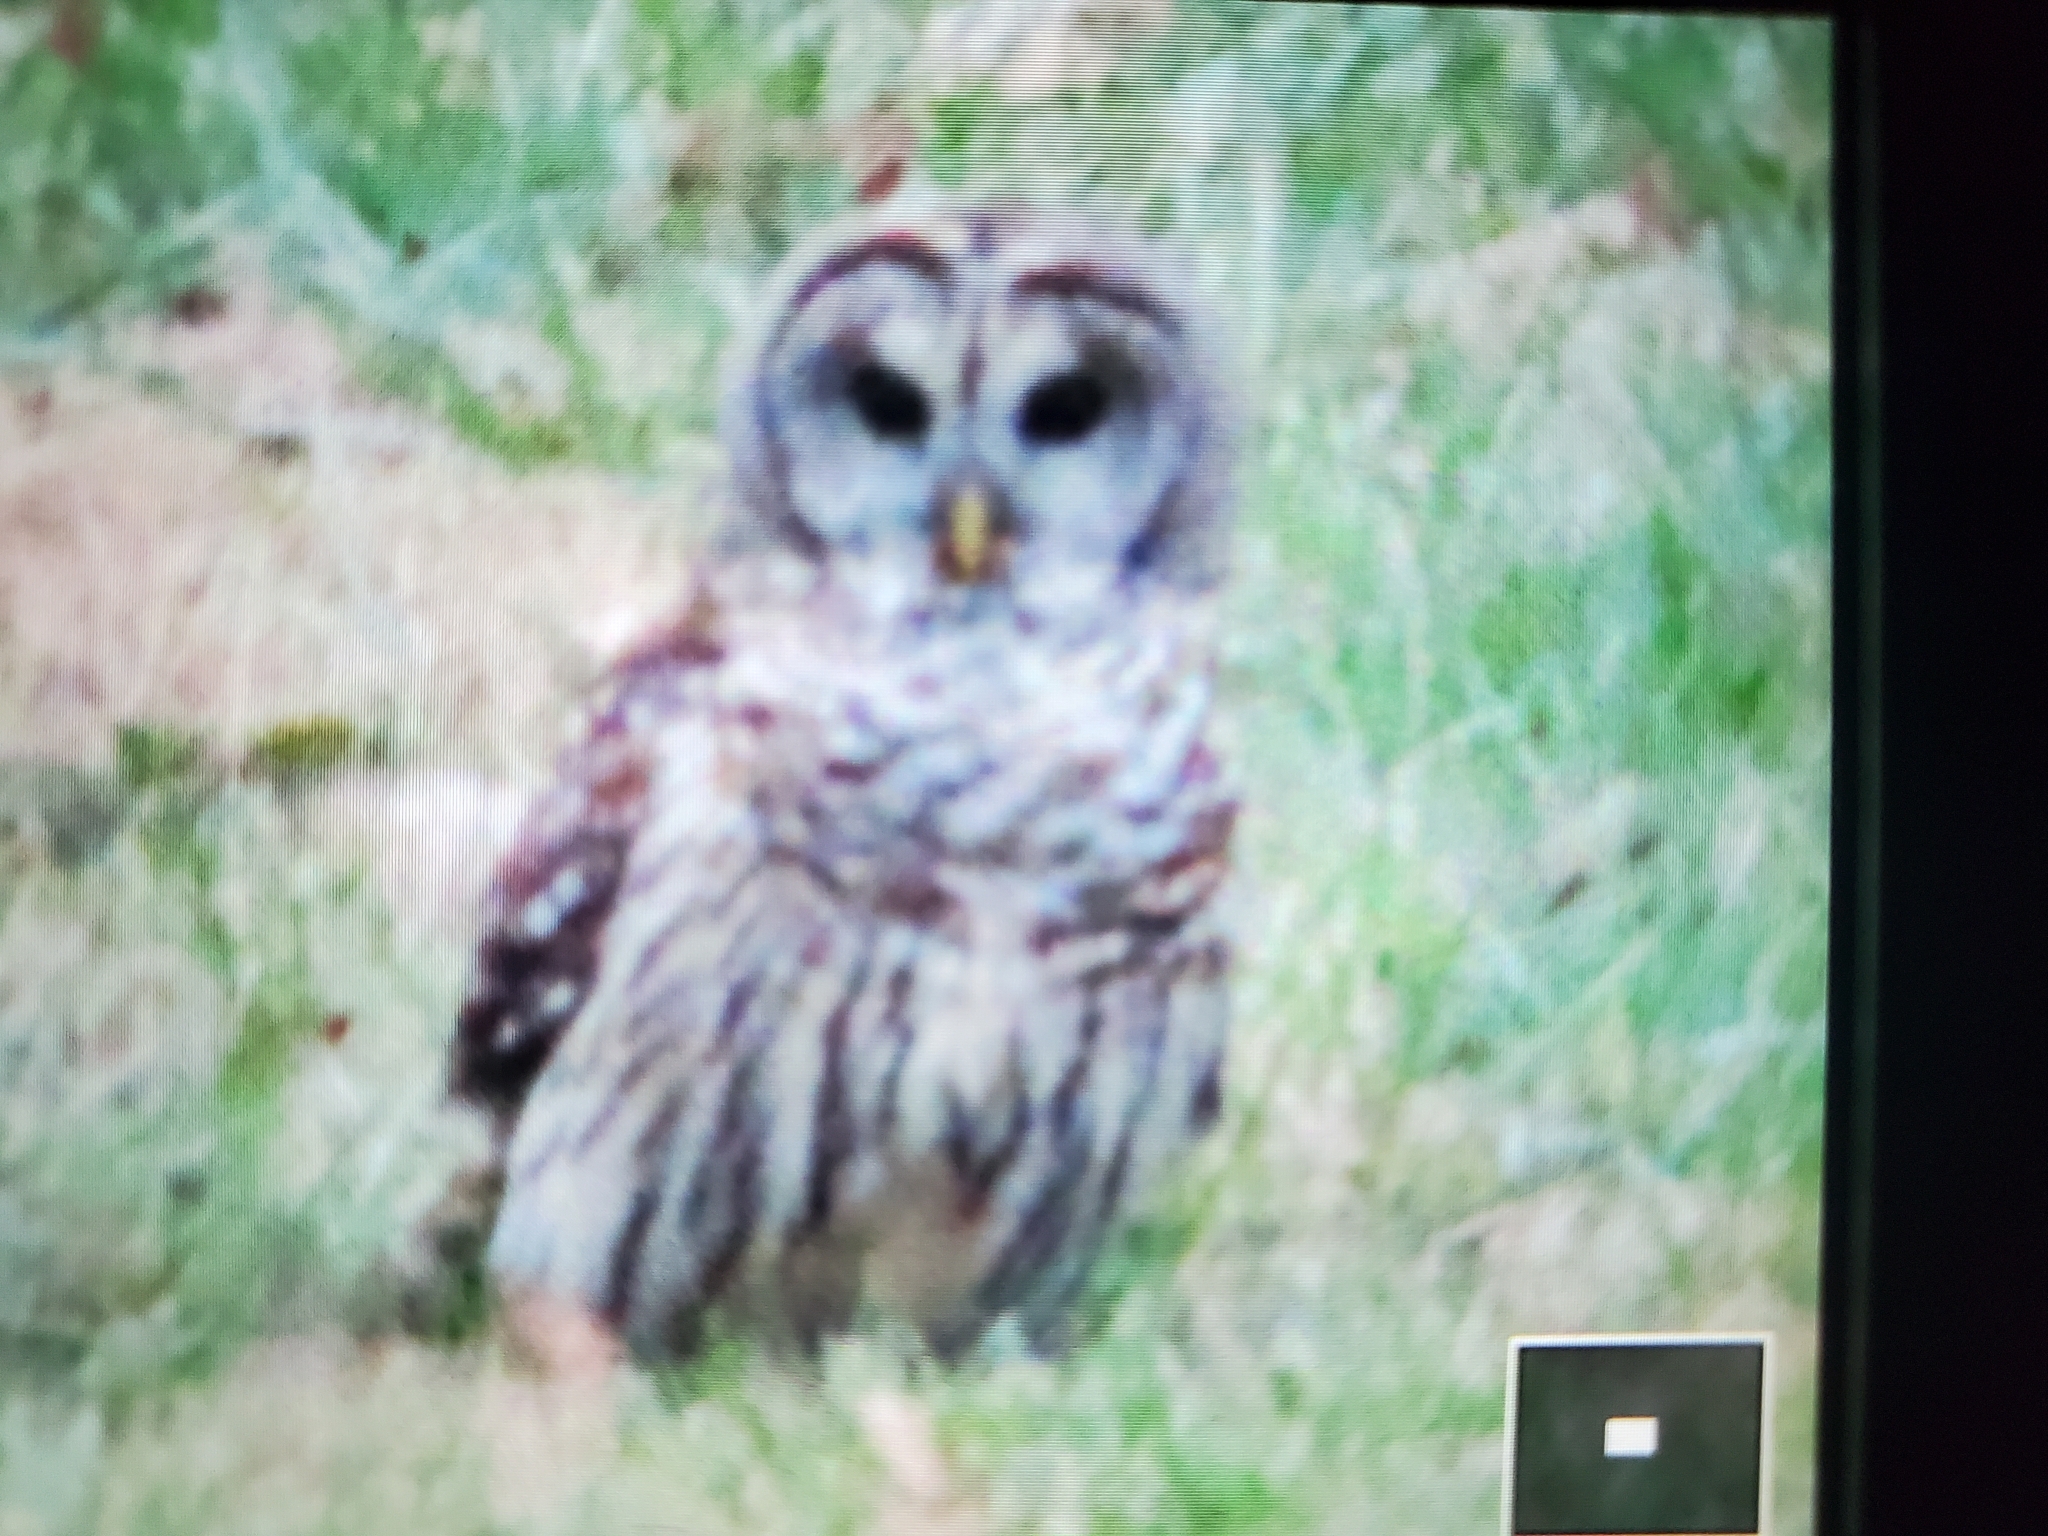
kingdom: Animalia
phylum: Chordata
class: Aves
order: Strigiformes
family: Strigidae
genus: Strix
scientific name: Strix varia
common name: Barred owl
